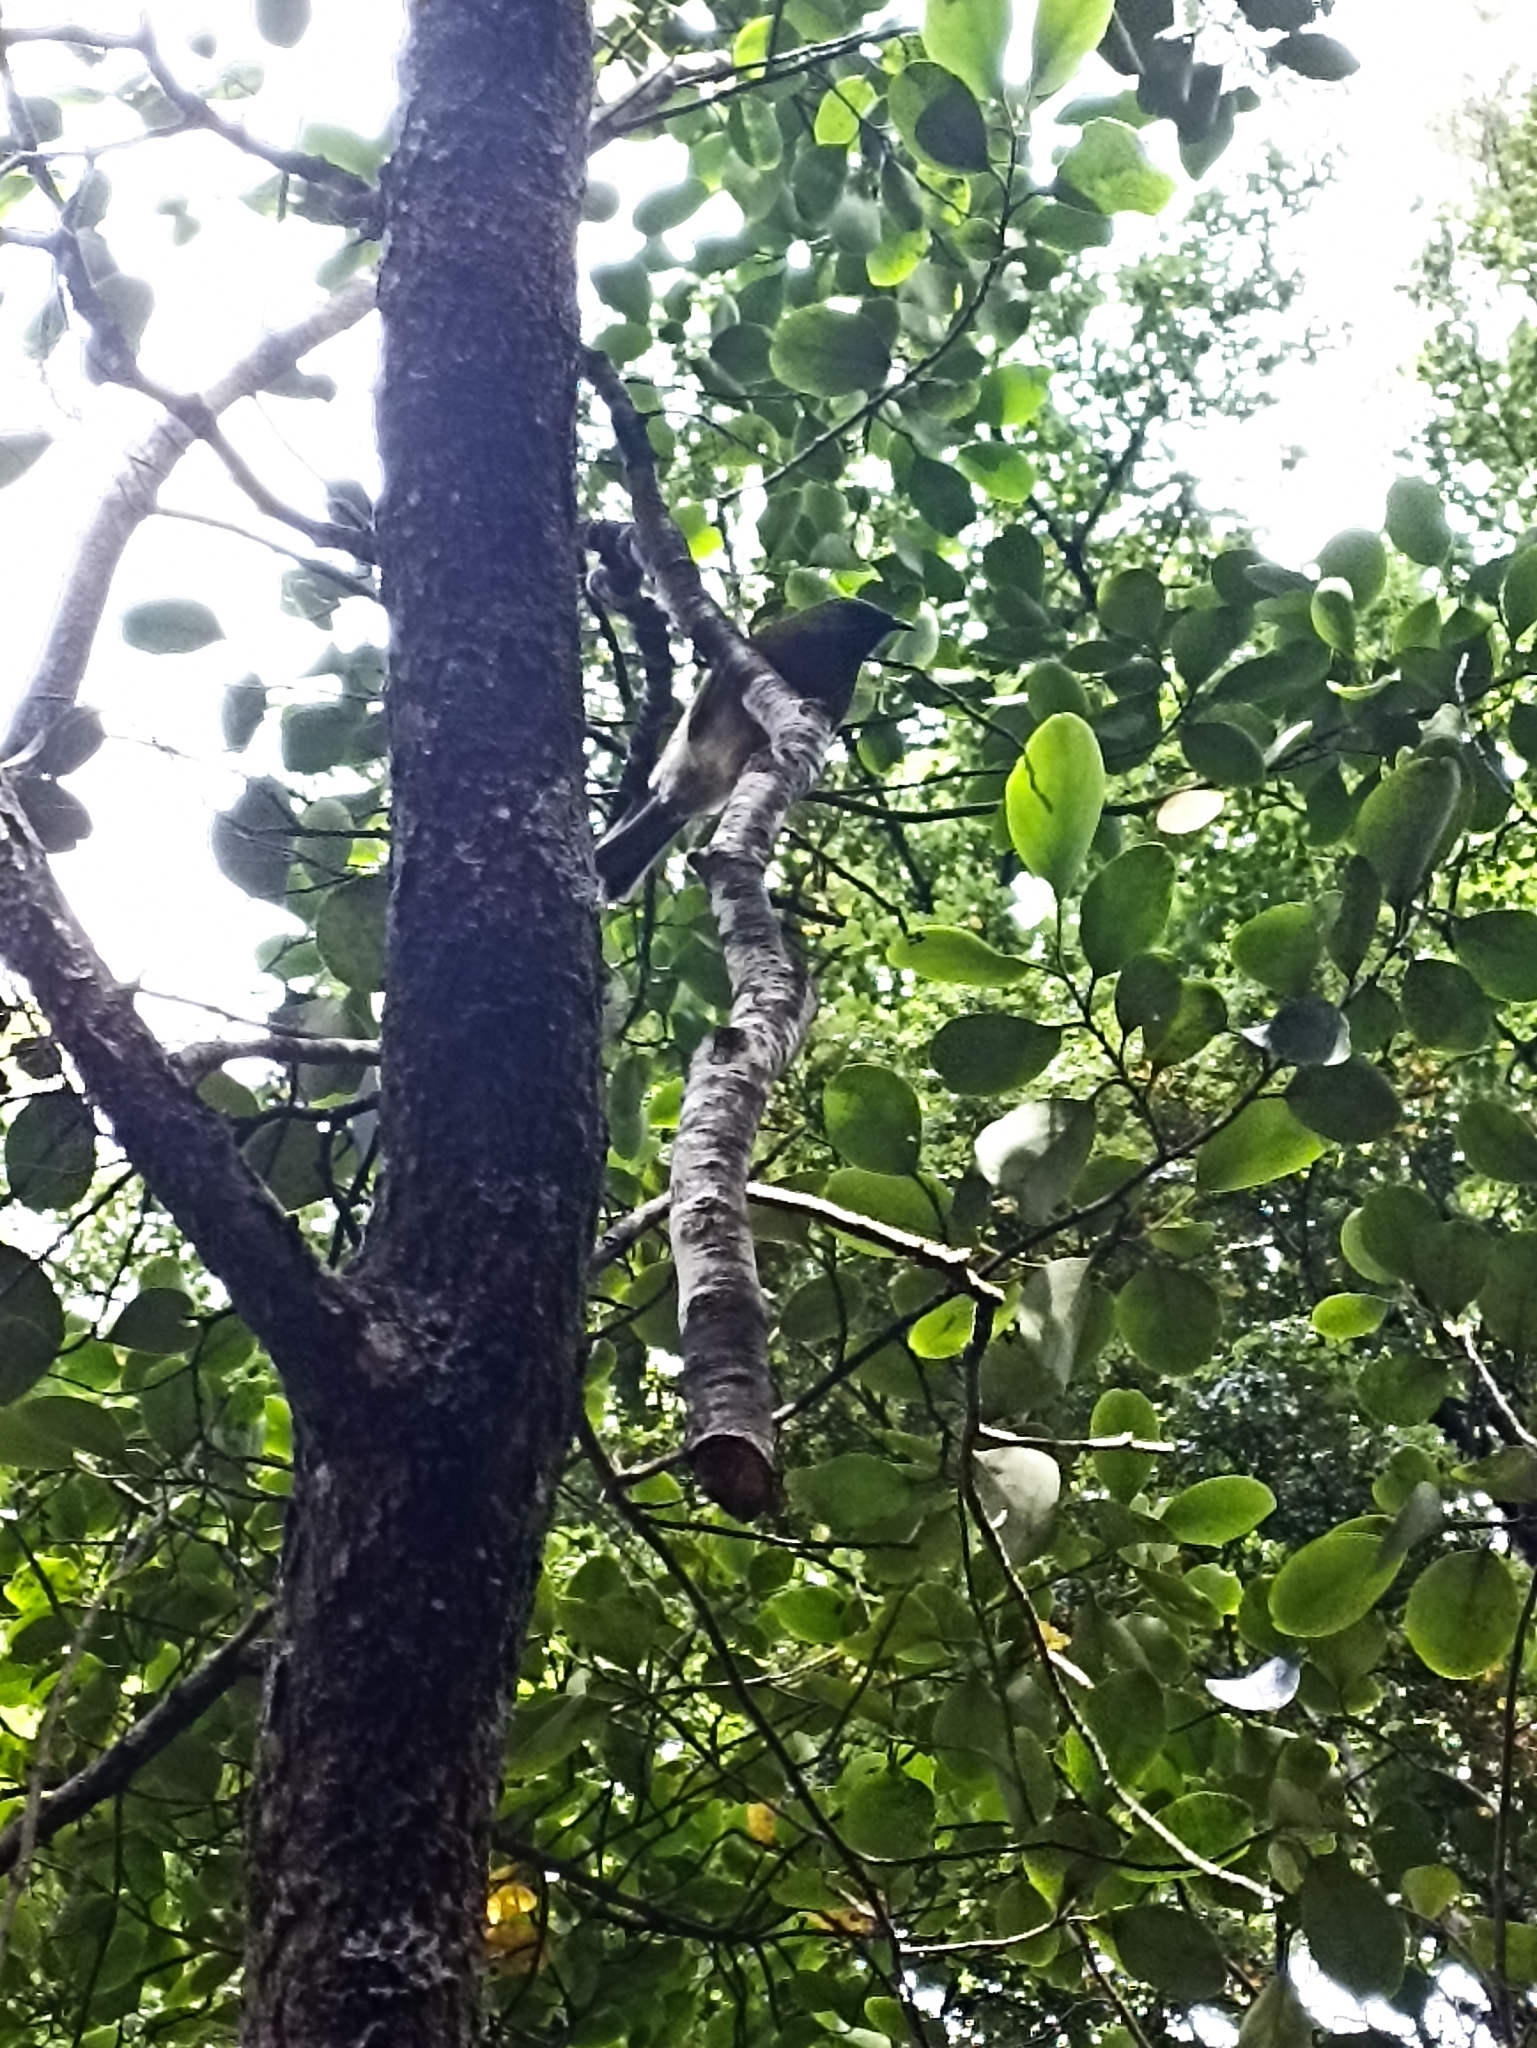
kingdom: Animalia
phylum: Chordata
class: Aves
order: Passeriformes
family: Meliphagidae
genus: Anthornis
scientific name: Anthornis melanura
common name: New zealand bellbird
